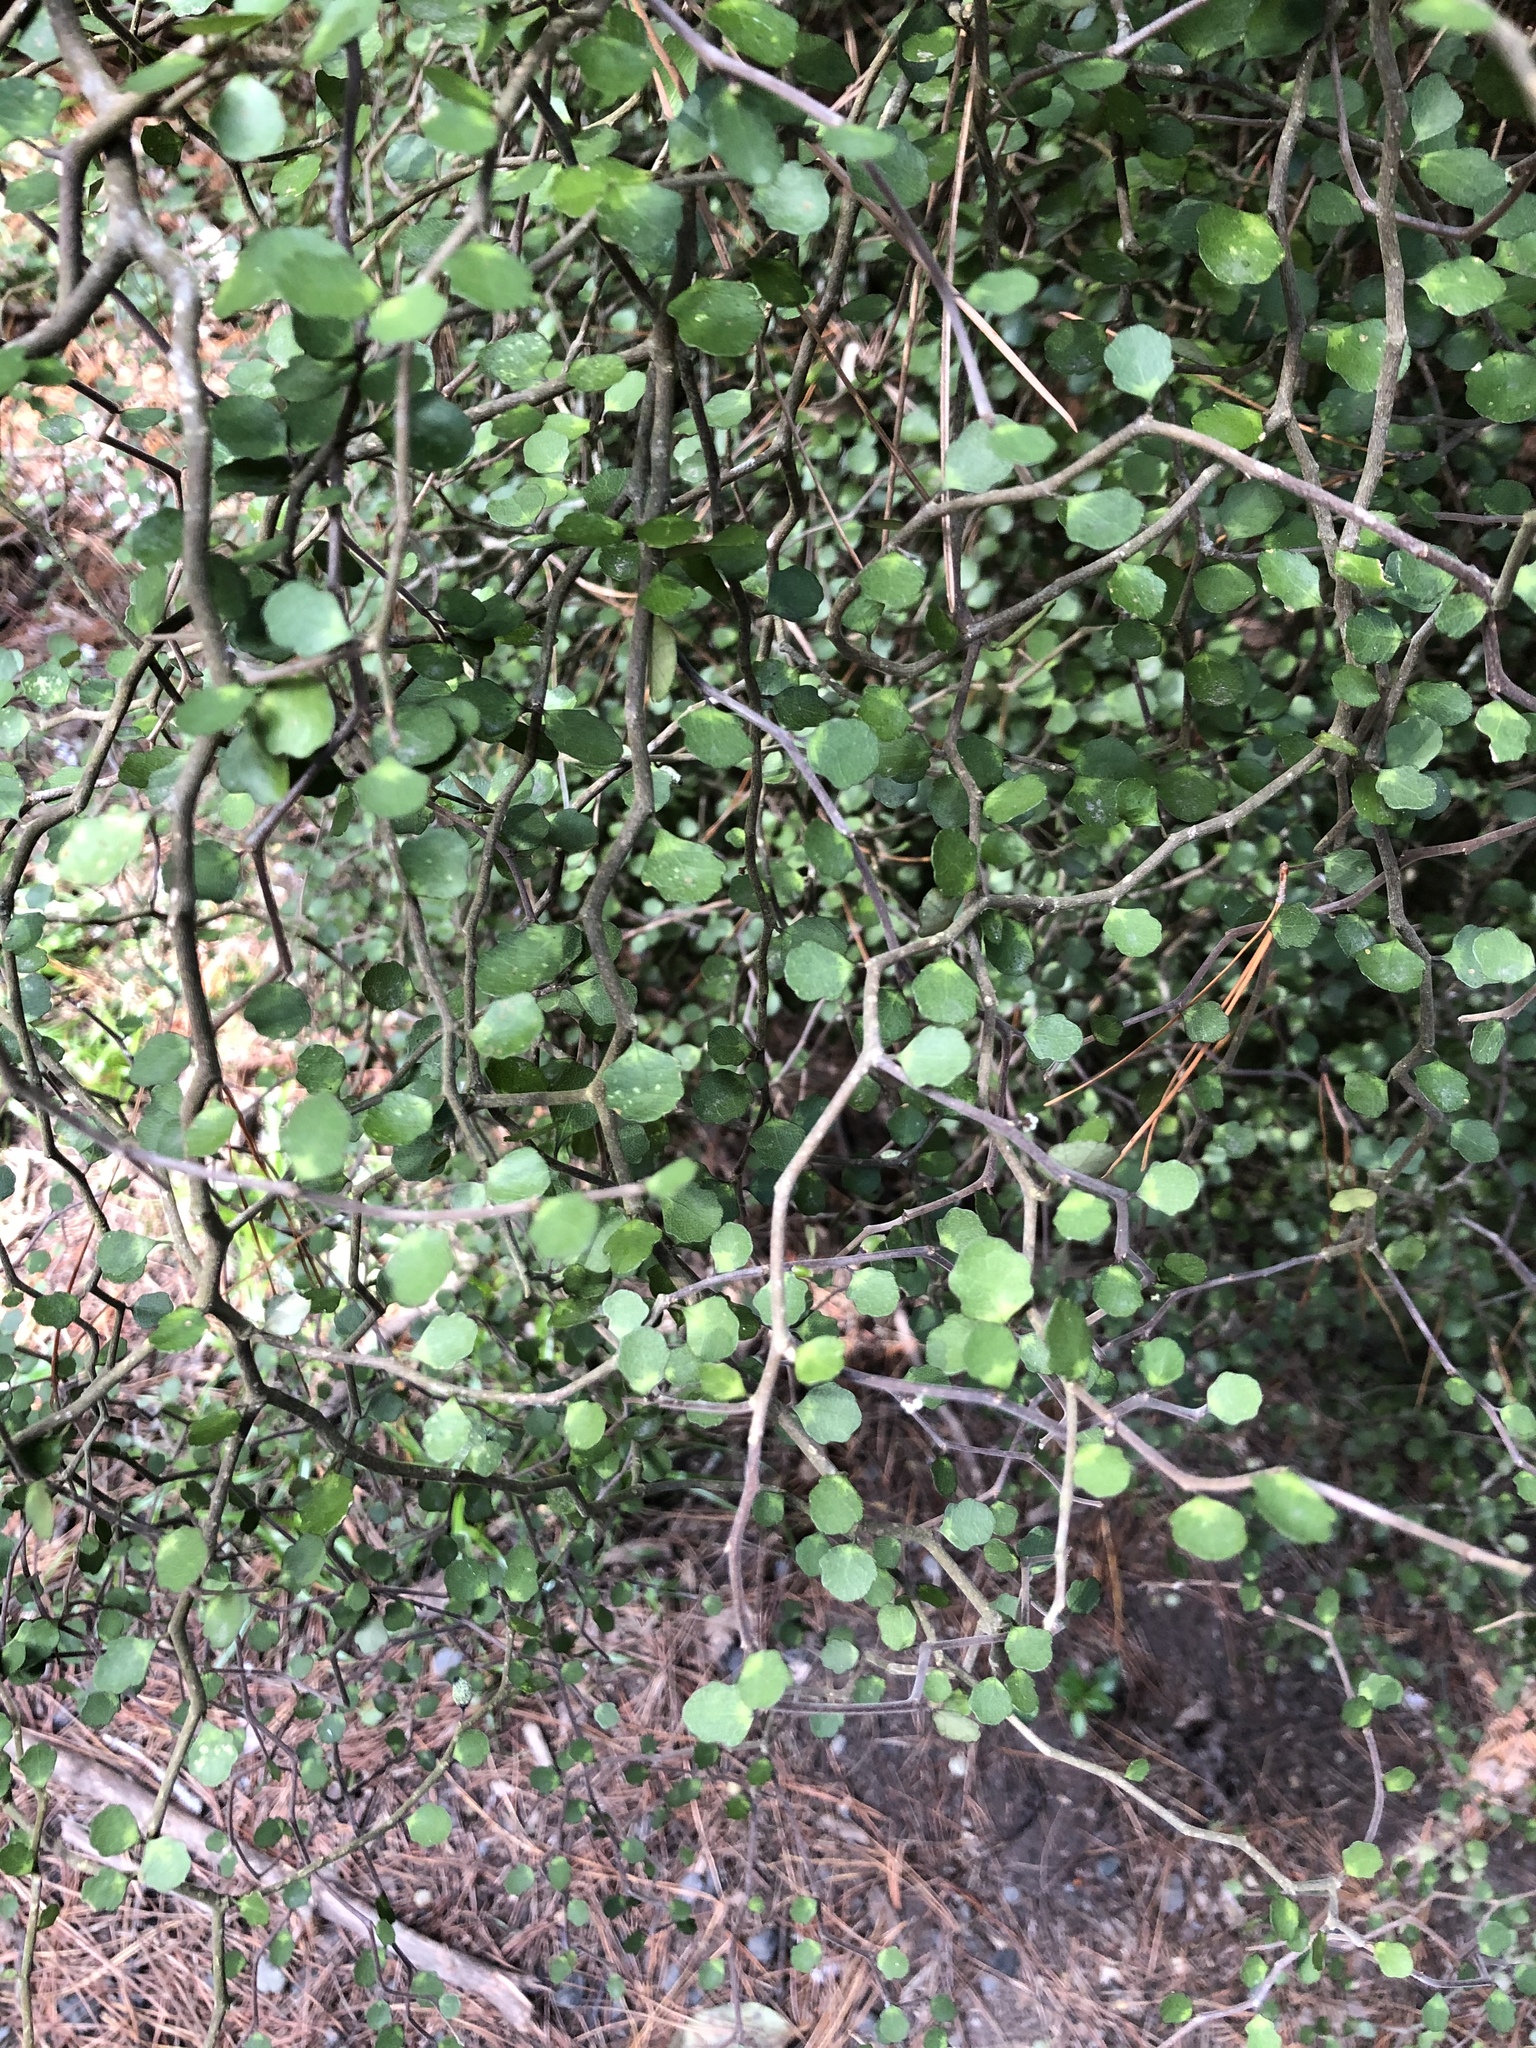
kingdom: Plantae
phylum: Tracheophyta
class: Magnoliopsida
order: Malpighiales
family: Violaceae
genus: Melicytus
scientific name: Melicytus micranthus
